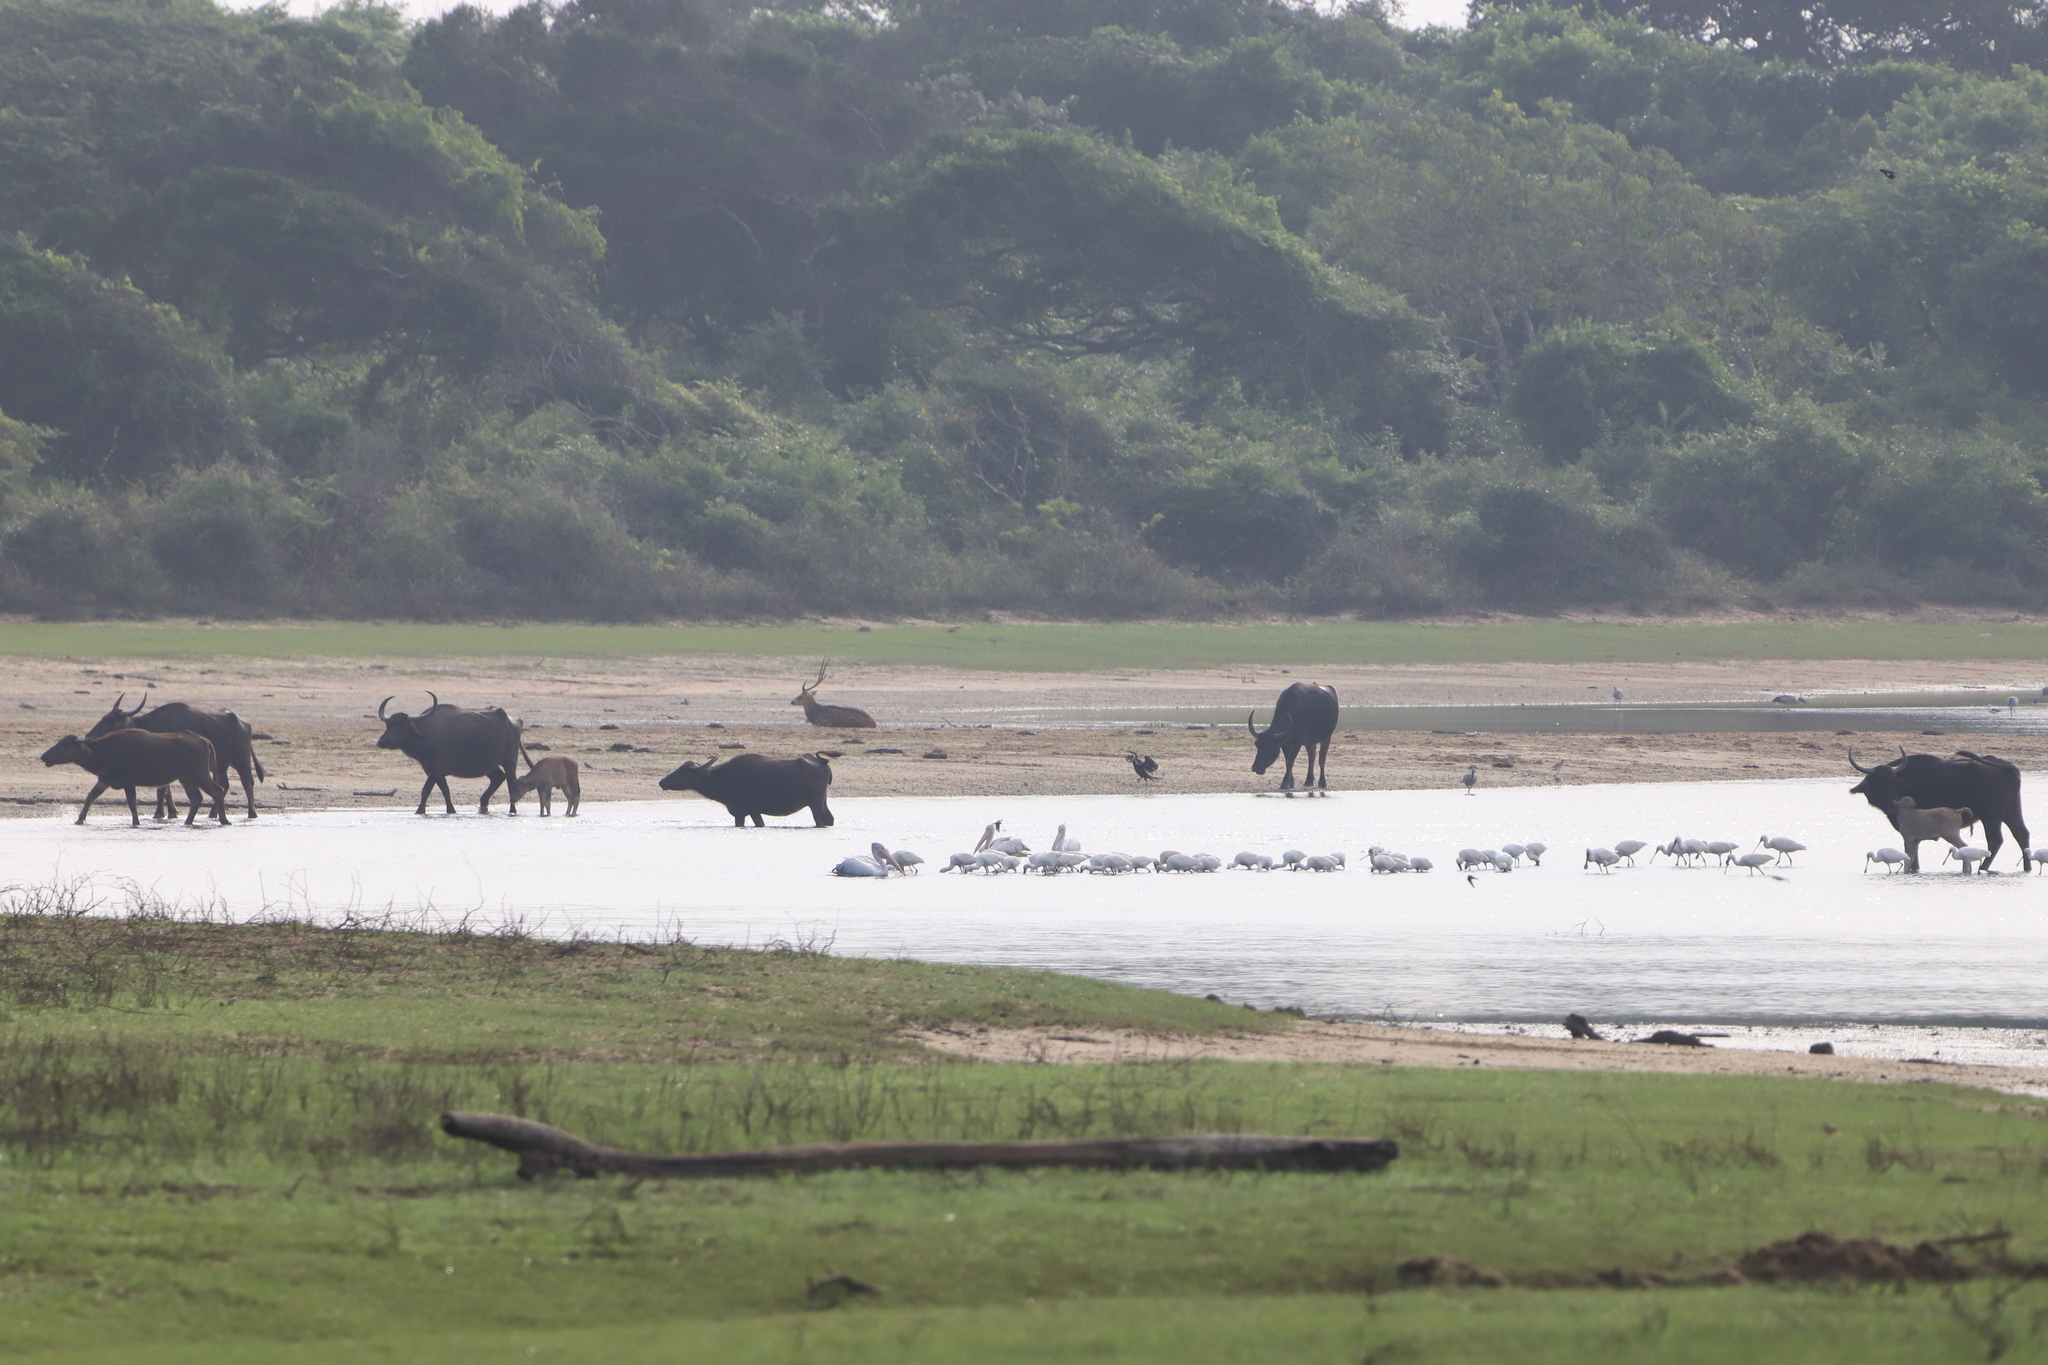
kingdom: Animalia
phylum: Chordata
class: Aves
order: Pelecaniformes
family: Pelecanidae
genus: Pelecanus
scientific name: Pelecanus philippensis
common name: Spot-billed pelican
